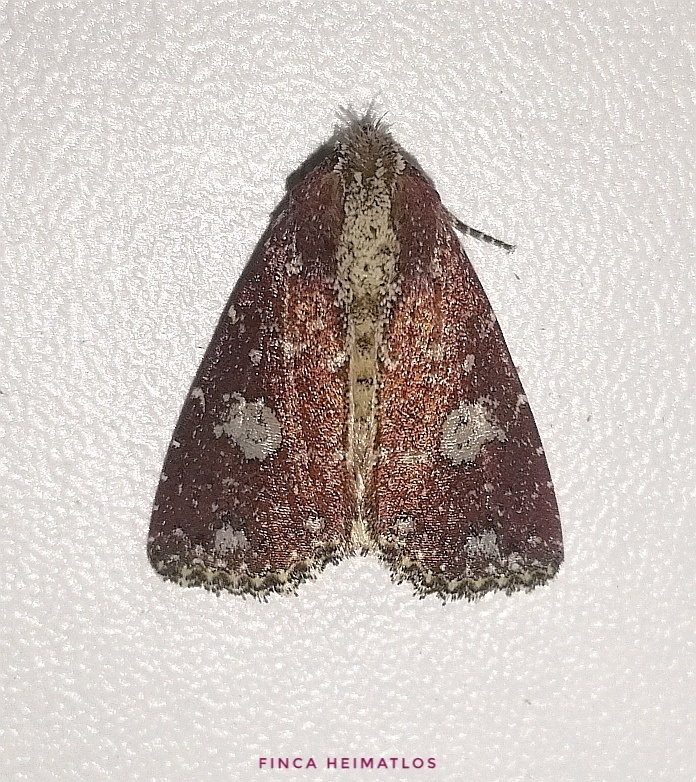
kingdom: Animalia
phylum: Arthropoda
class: Insecta
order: Lepidoptera
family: Noctuidae
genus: Condica
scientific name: Condica griseirena
